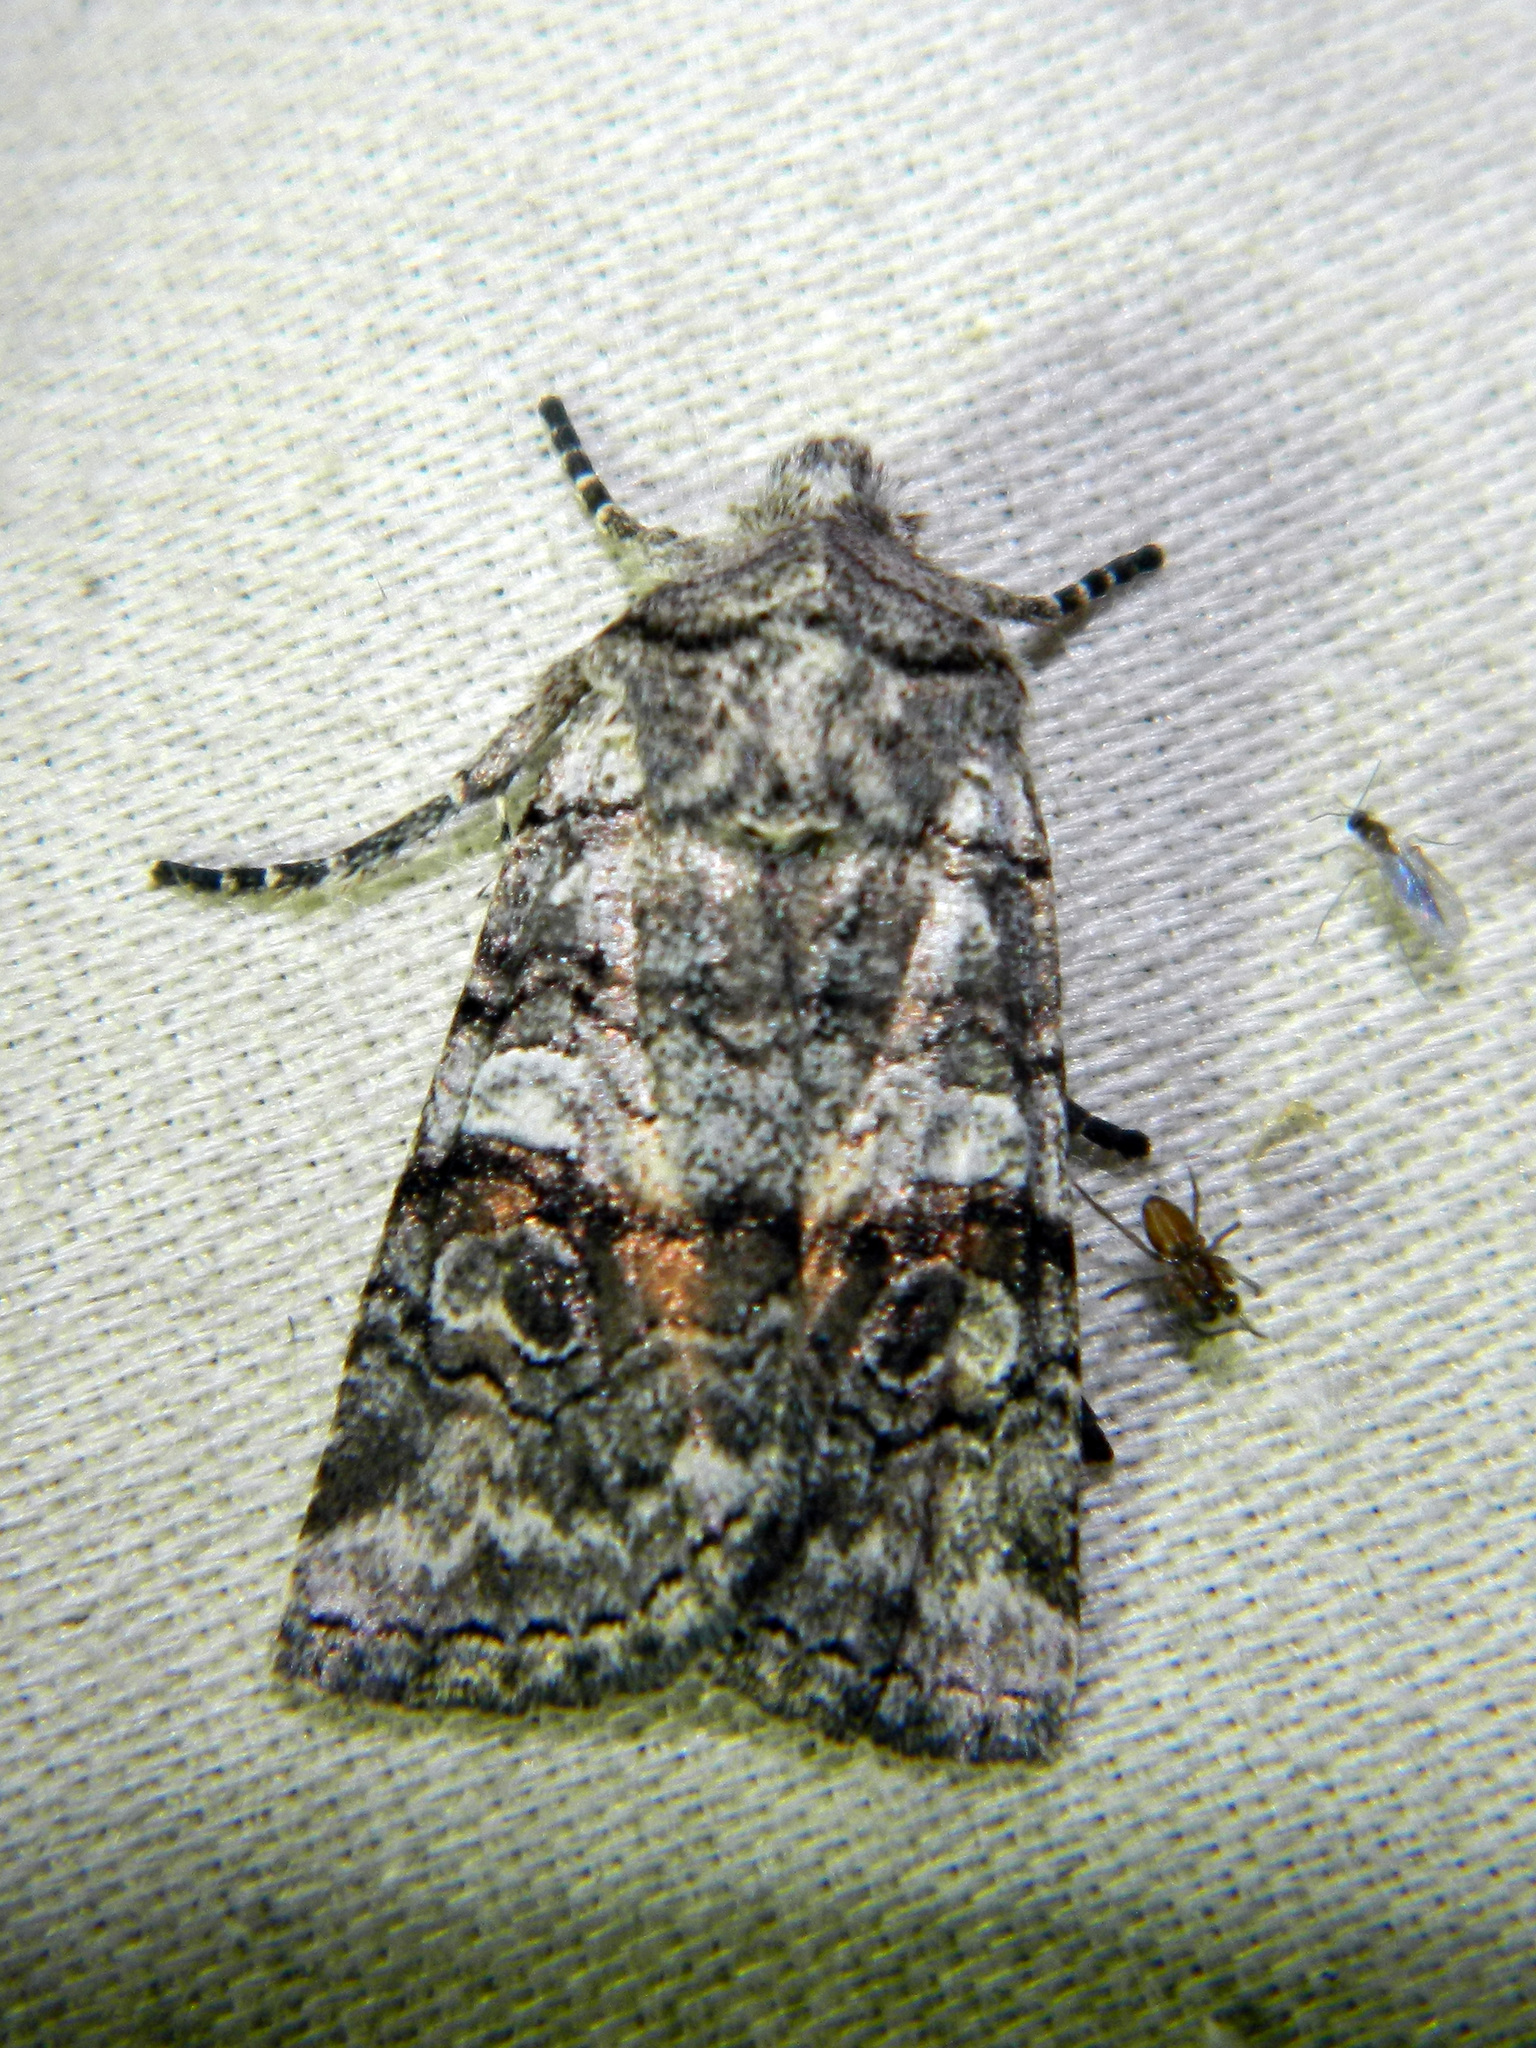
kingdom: Animalia
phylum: Arthropoda
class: Insecta
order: Lepidoptera
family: Noctuidae
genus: Litholomia
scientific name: Litholomia napaea
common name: False pinion moth
